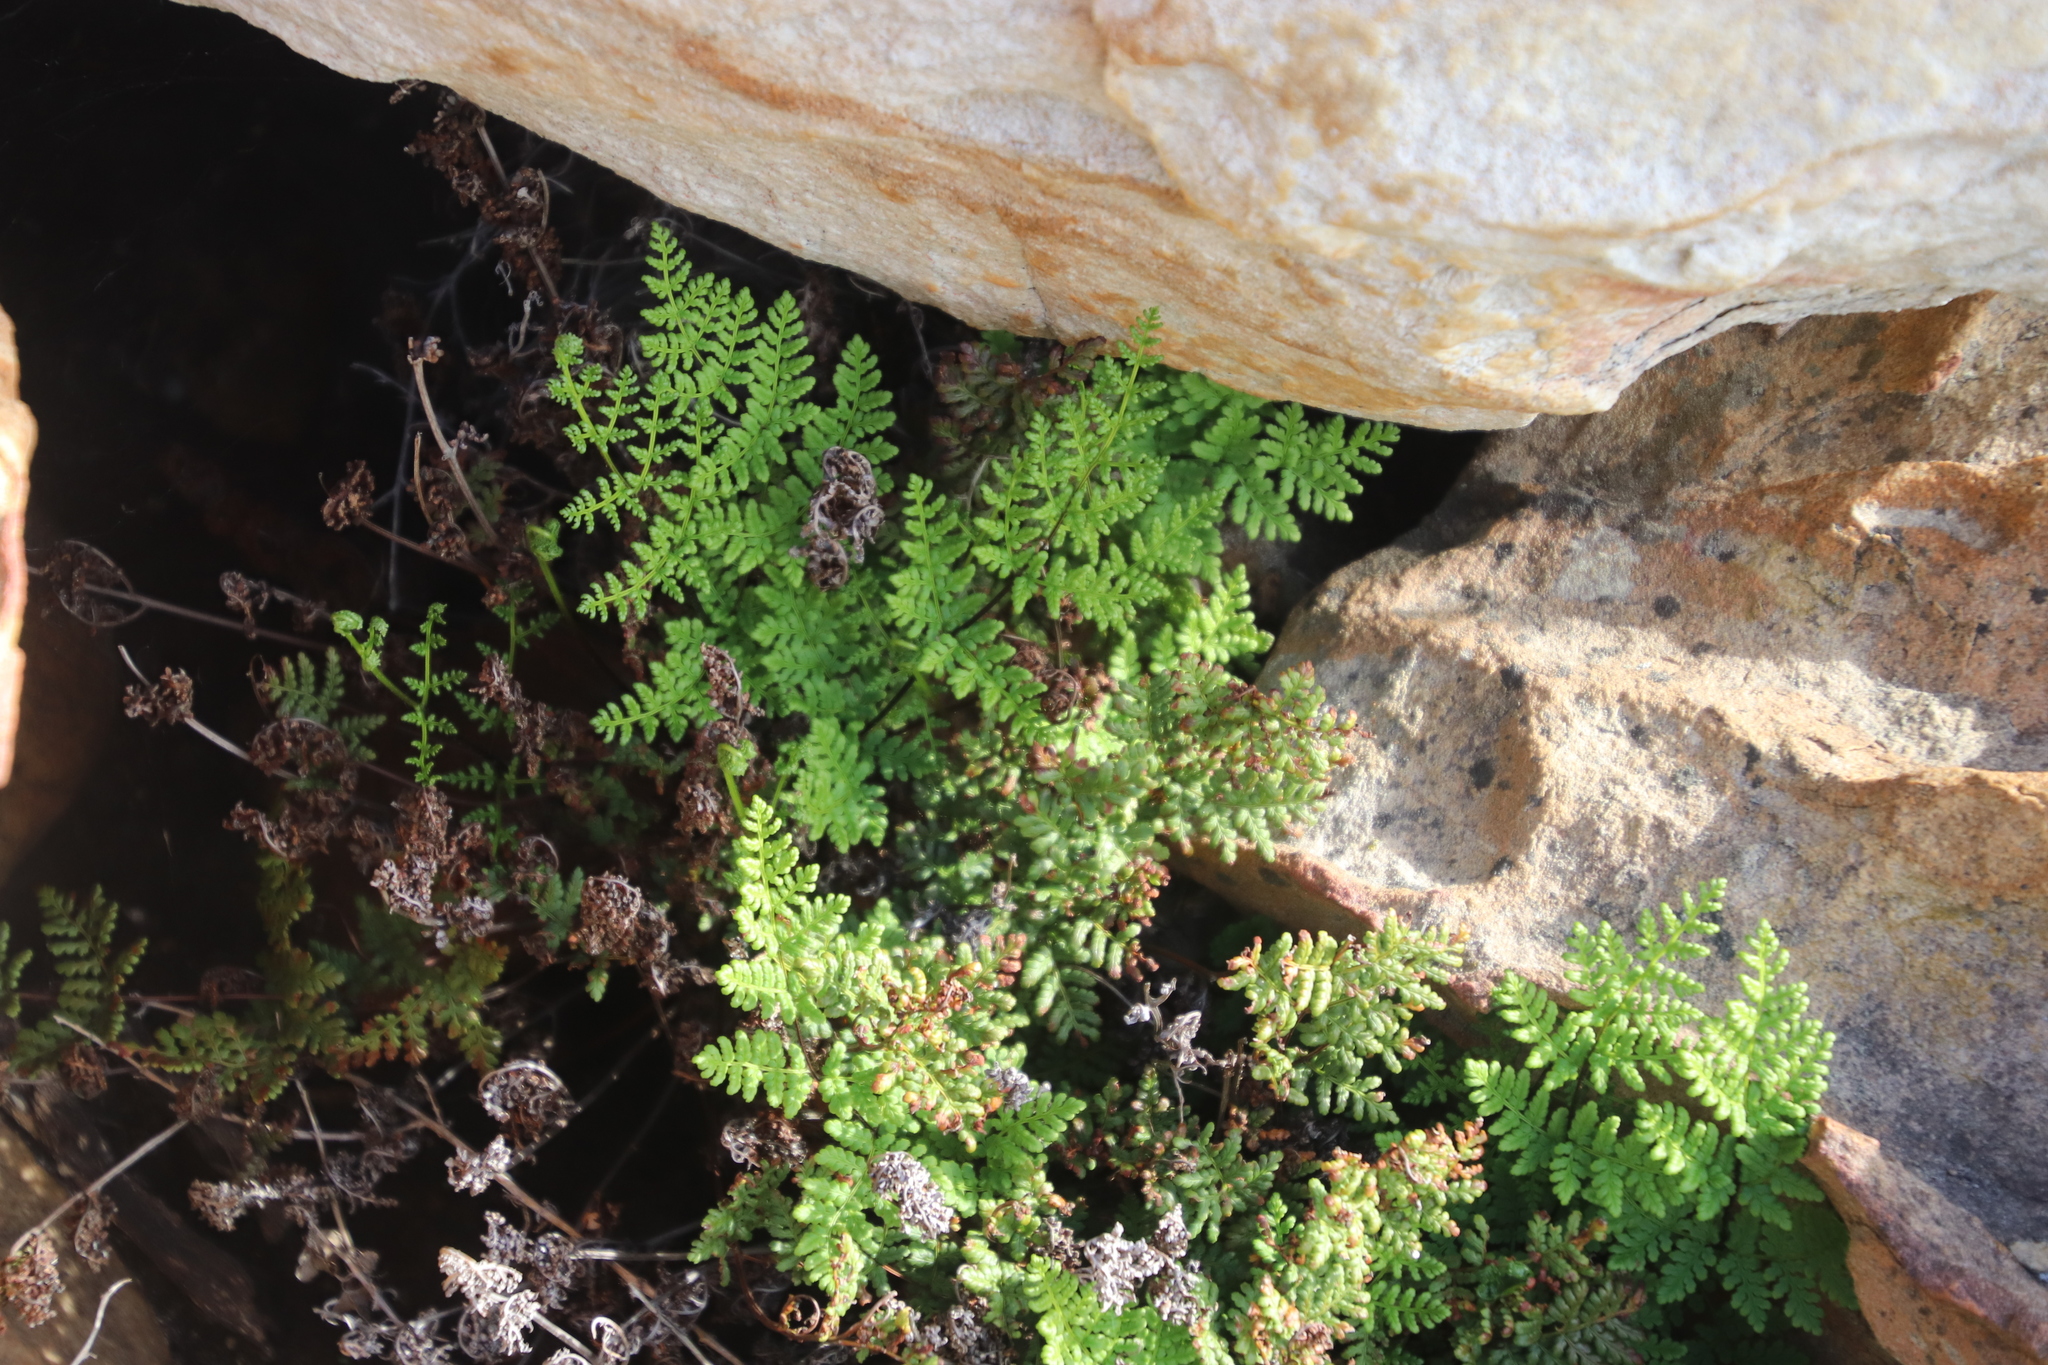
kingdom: Plantae
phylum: Tracheophyta
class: Polypodiopsida
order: Polypodiales
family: Pteridaceae
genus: Cheilanthes
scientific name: Cheilanthes multifida
